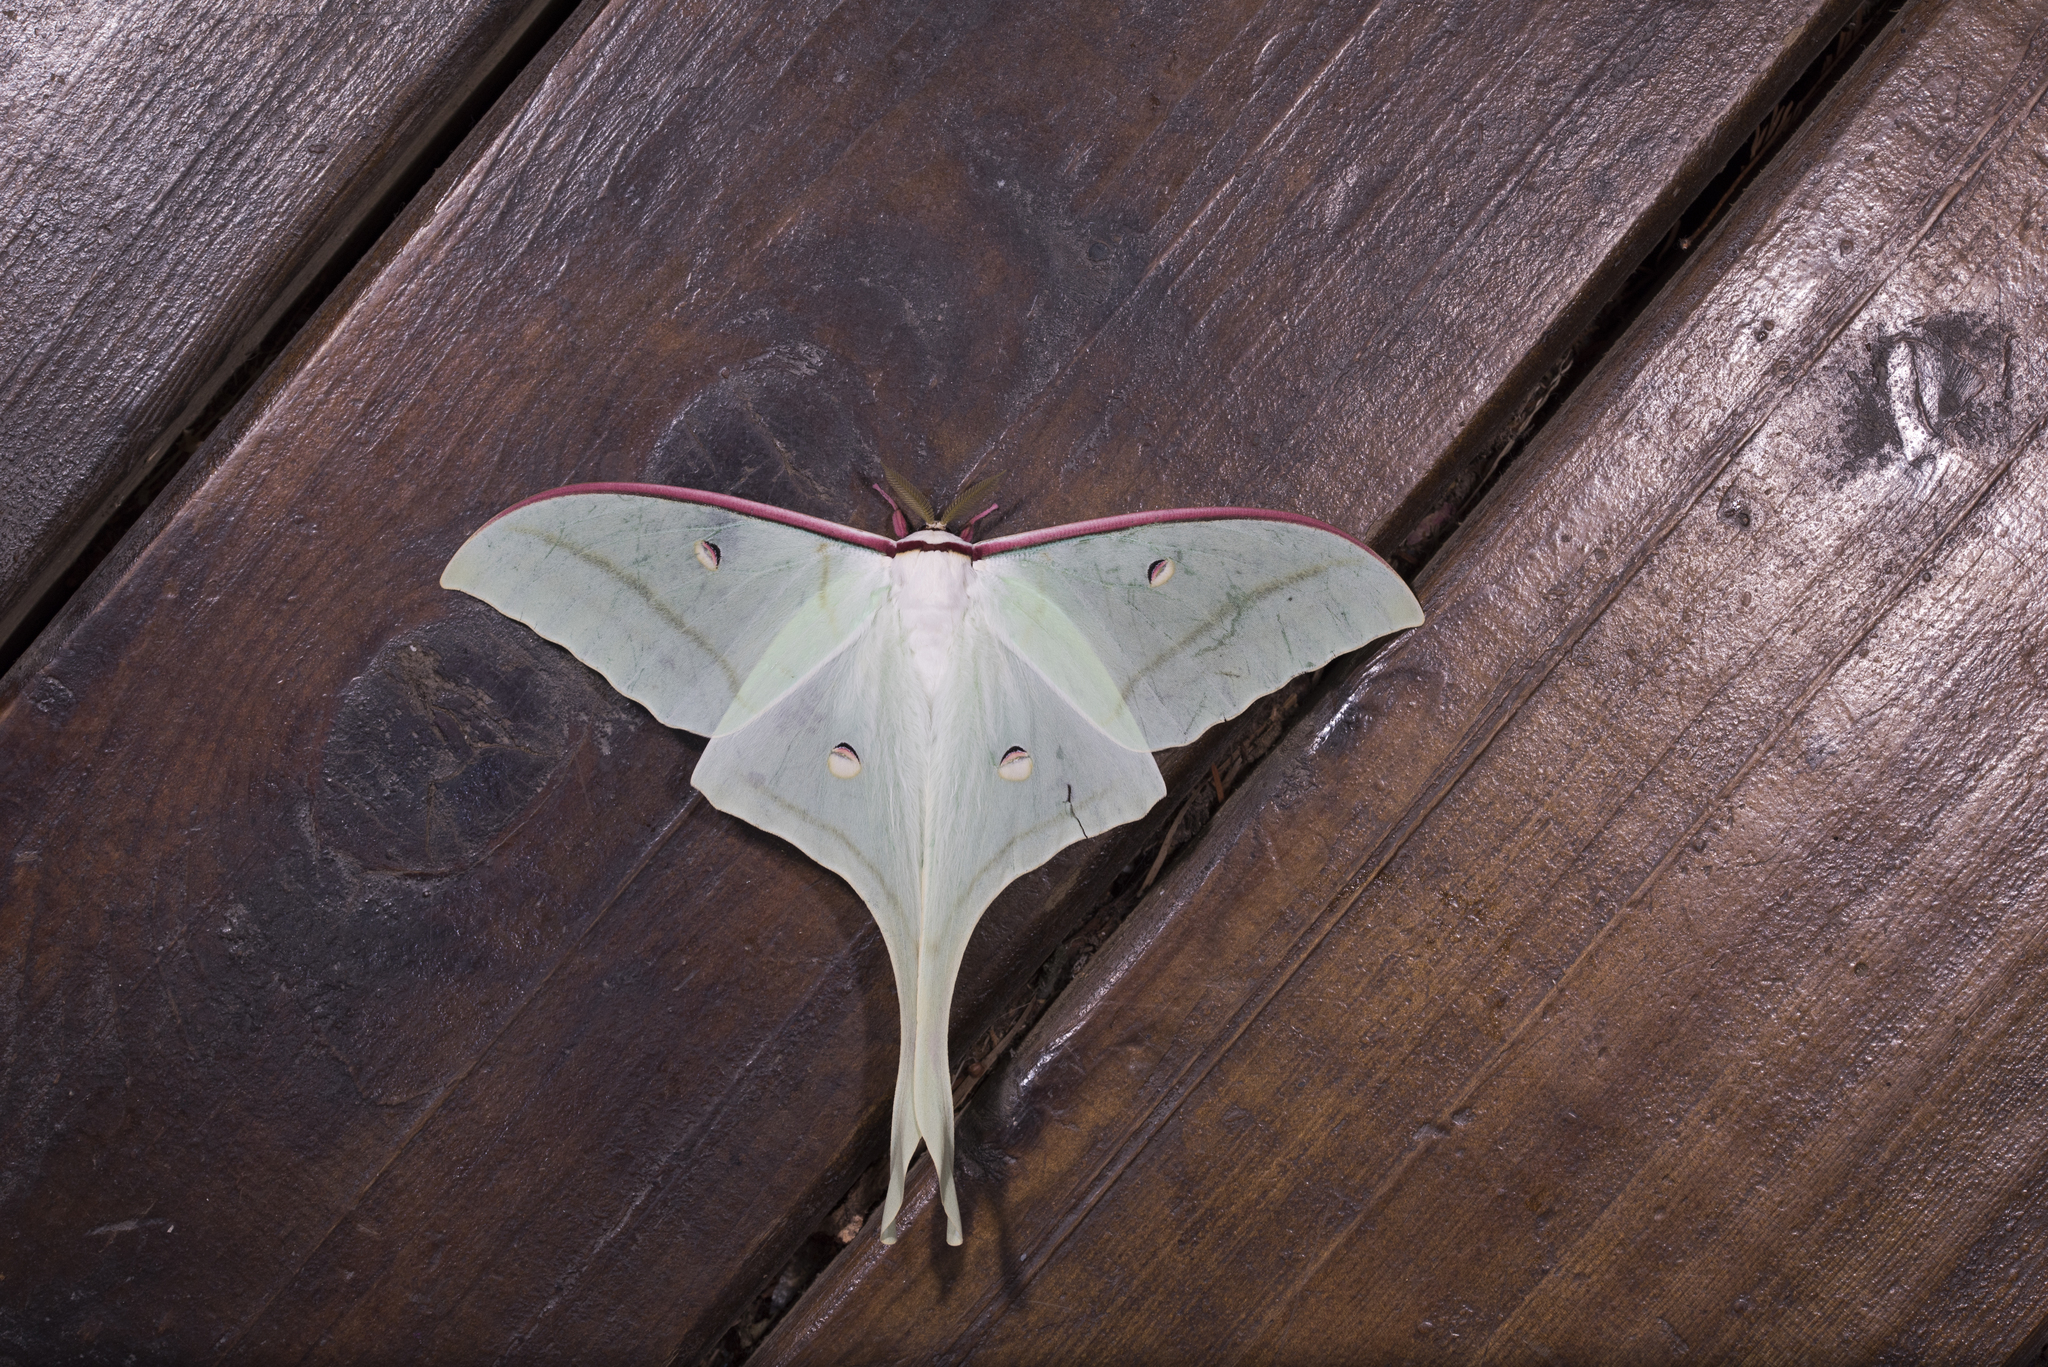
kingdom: Animalia
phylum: Arthropoda
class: Insecta
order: Lepidoptera
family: Saturniidae
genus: Actias
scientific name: Actias ningpoana
